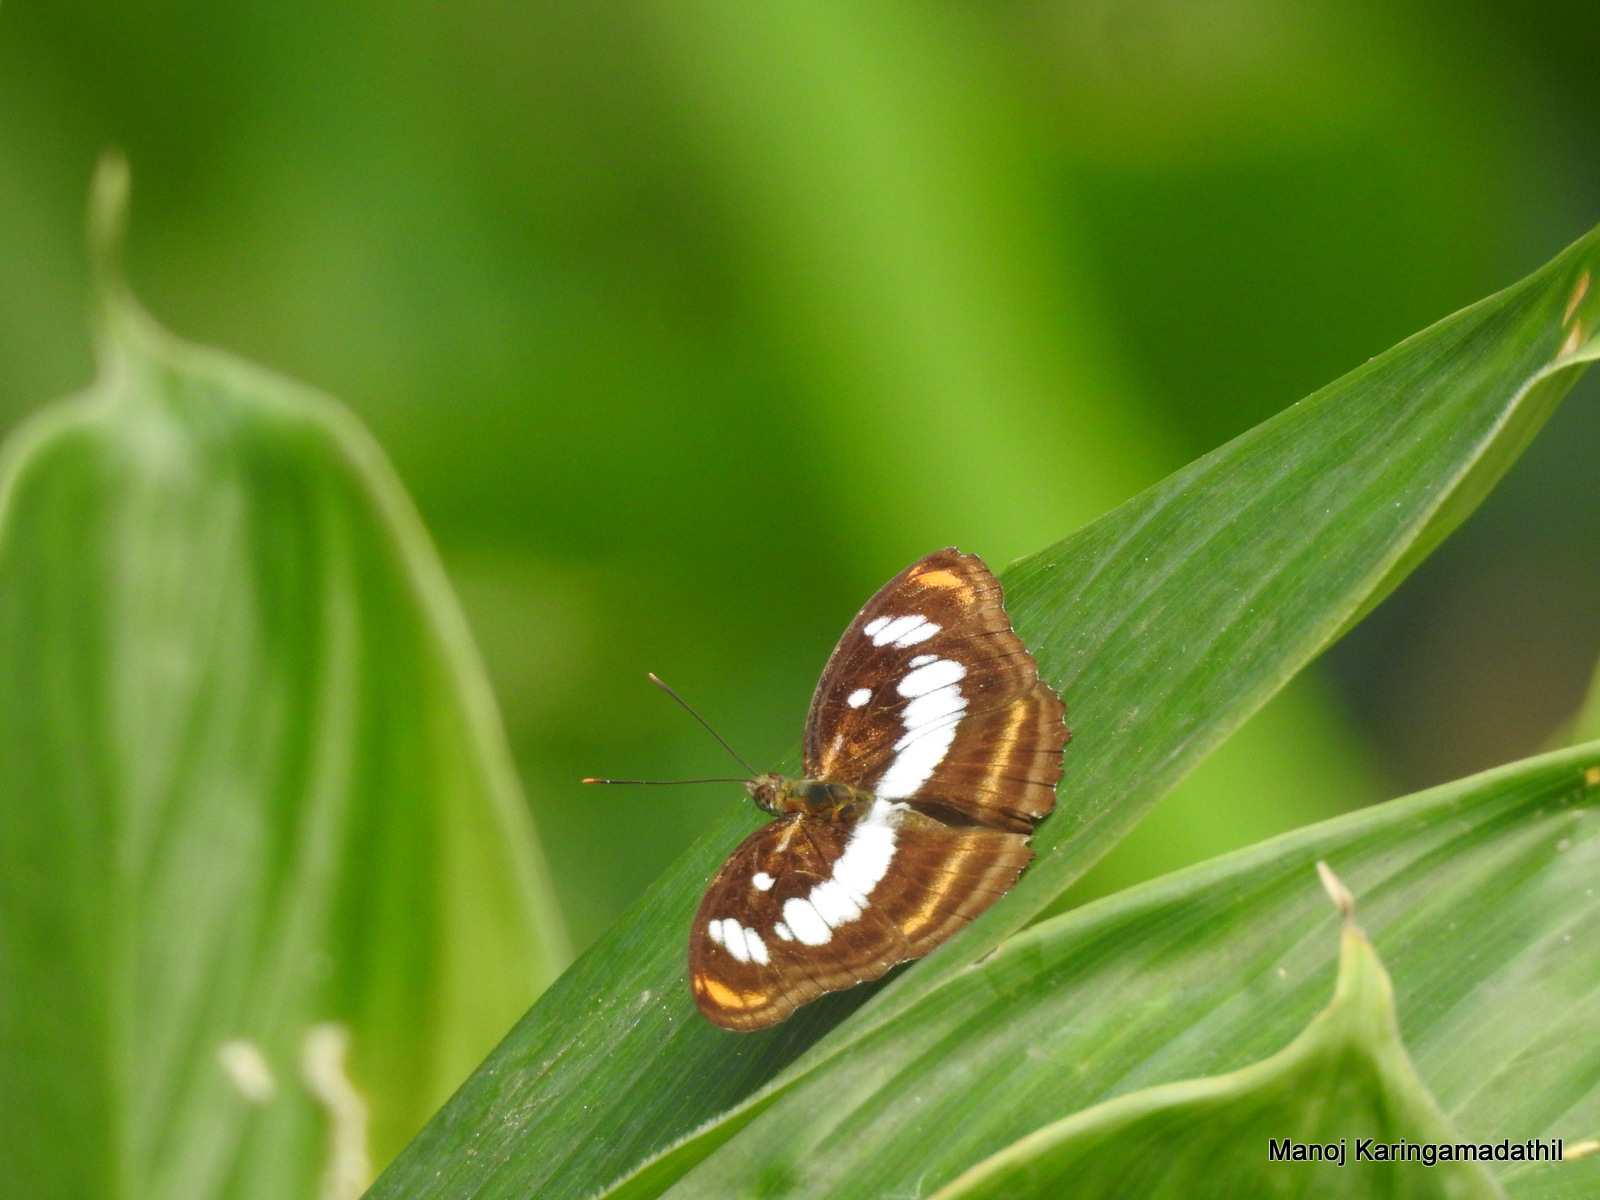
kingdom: Animalia
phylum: Arthropoda
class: Insecta
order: Lepidoptera
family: Nymphalidae
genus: Parathyma
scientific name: Parathyma nefte
